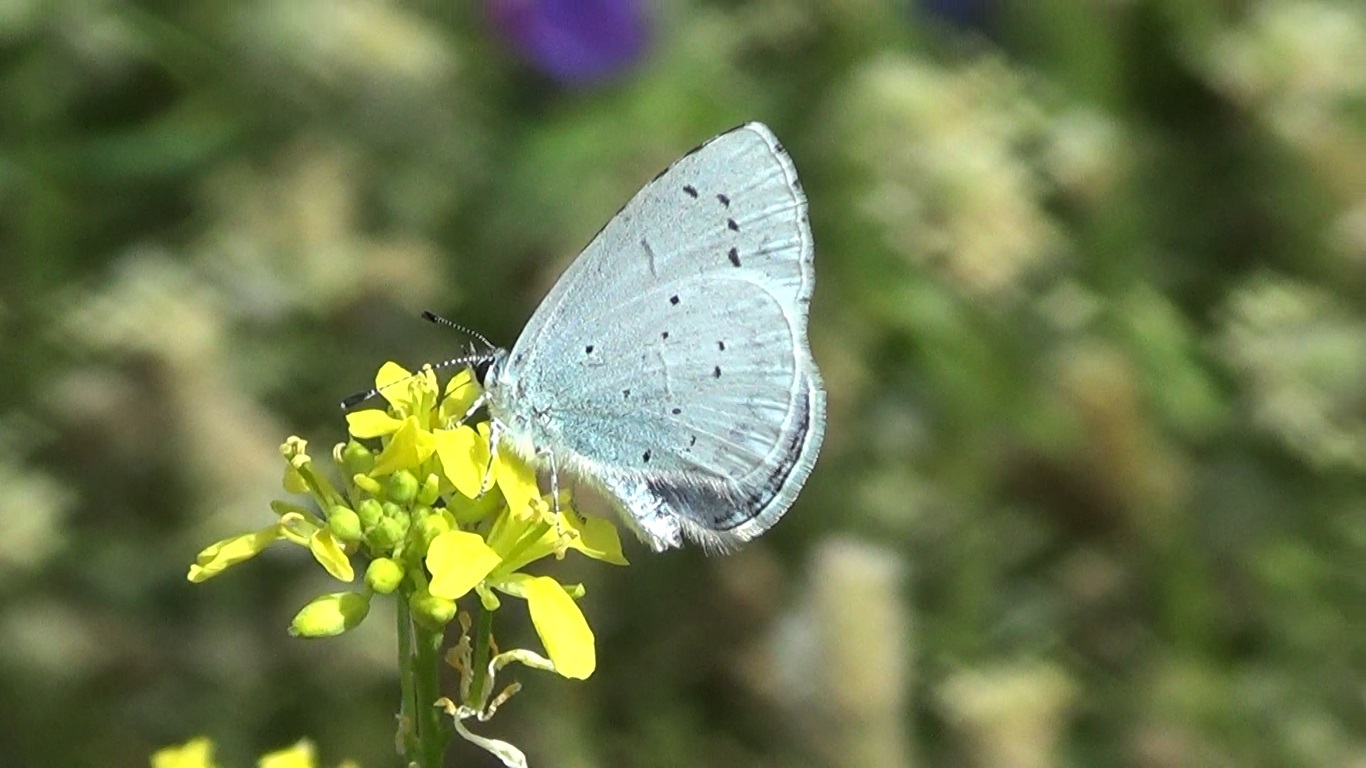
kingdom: Animalia
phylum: Arthropoda
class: Insecta
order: Lepidoptera
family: Lycaenidae
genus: Celastrina
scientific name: Celastrina argiolus
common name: Holly blue
